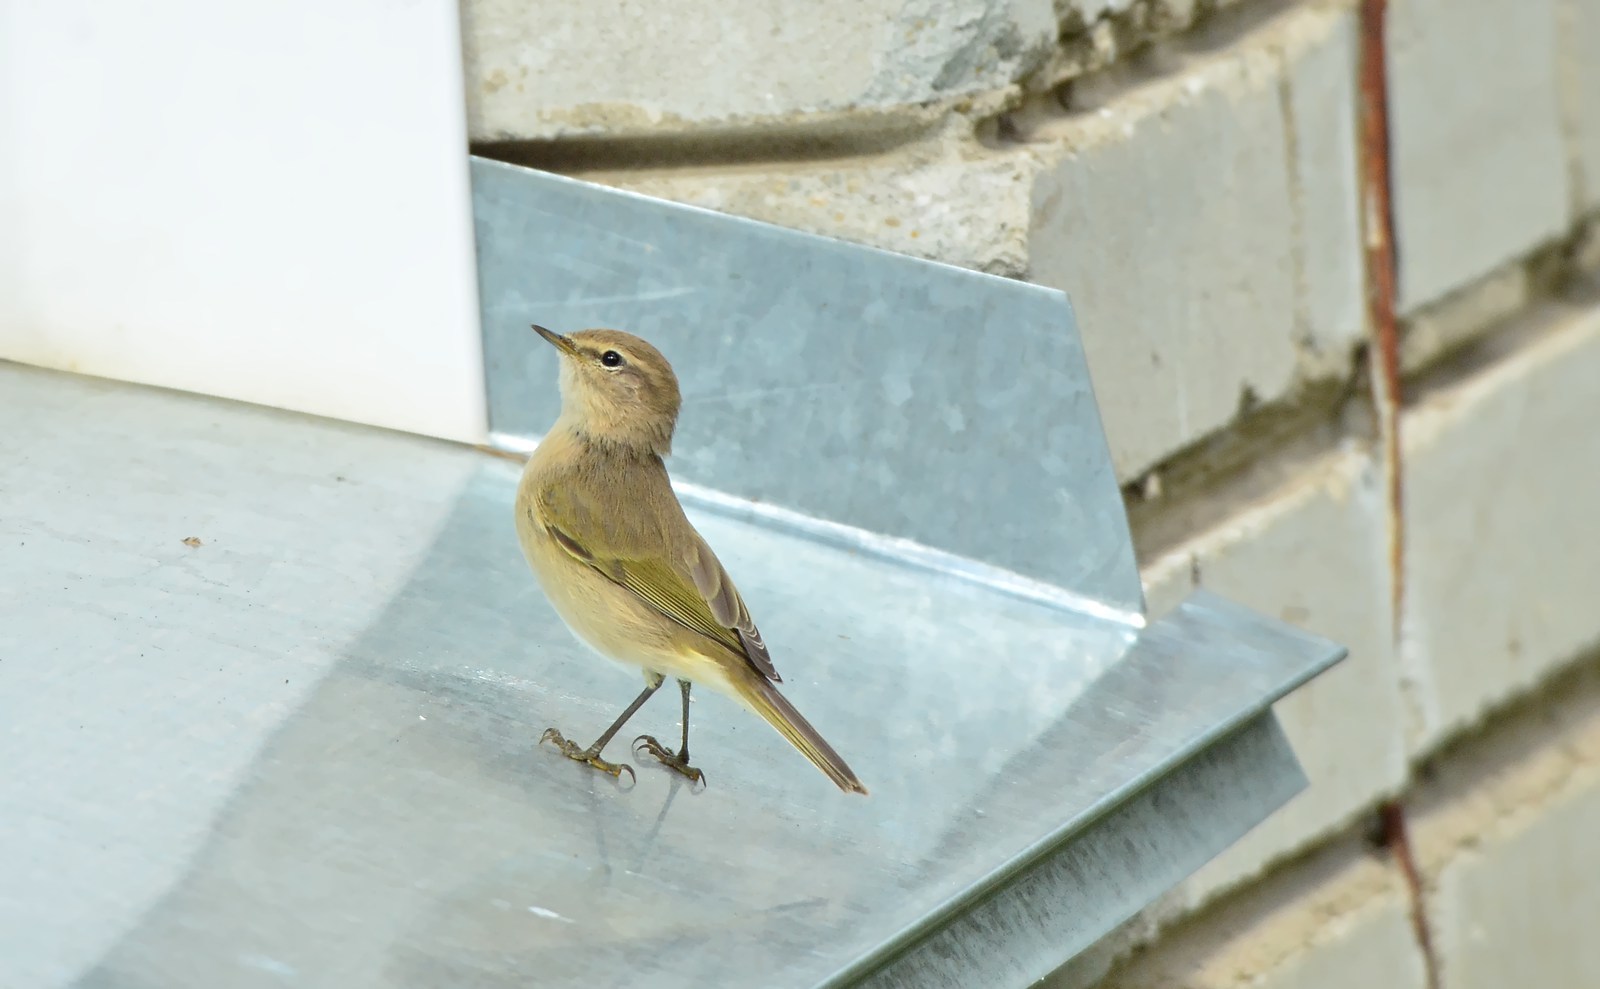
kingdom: Animalia
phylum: Chordata
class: Aves
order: Passeriformes
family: Phylloscopidae
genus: Phylloscopus
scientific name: Phylloscopus collybita
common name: Common chiffchaff
